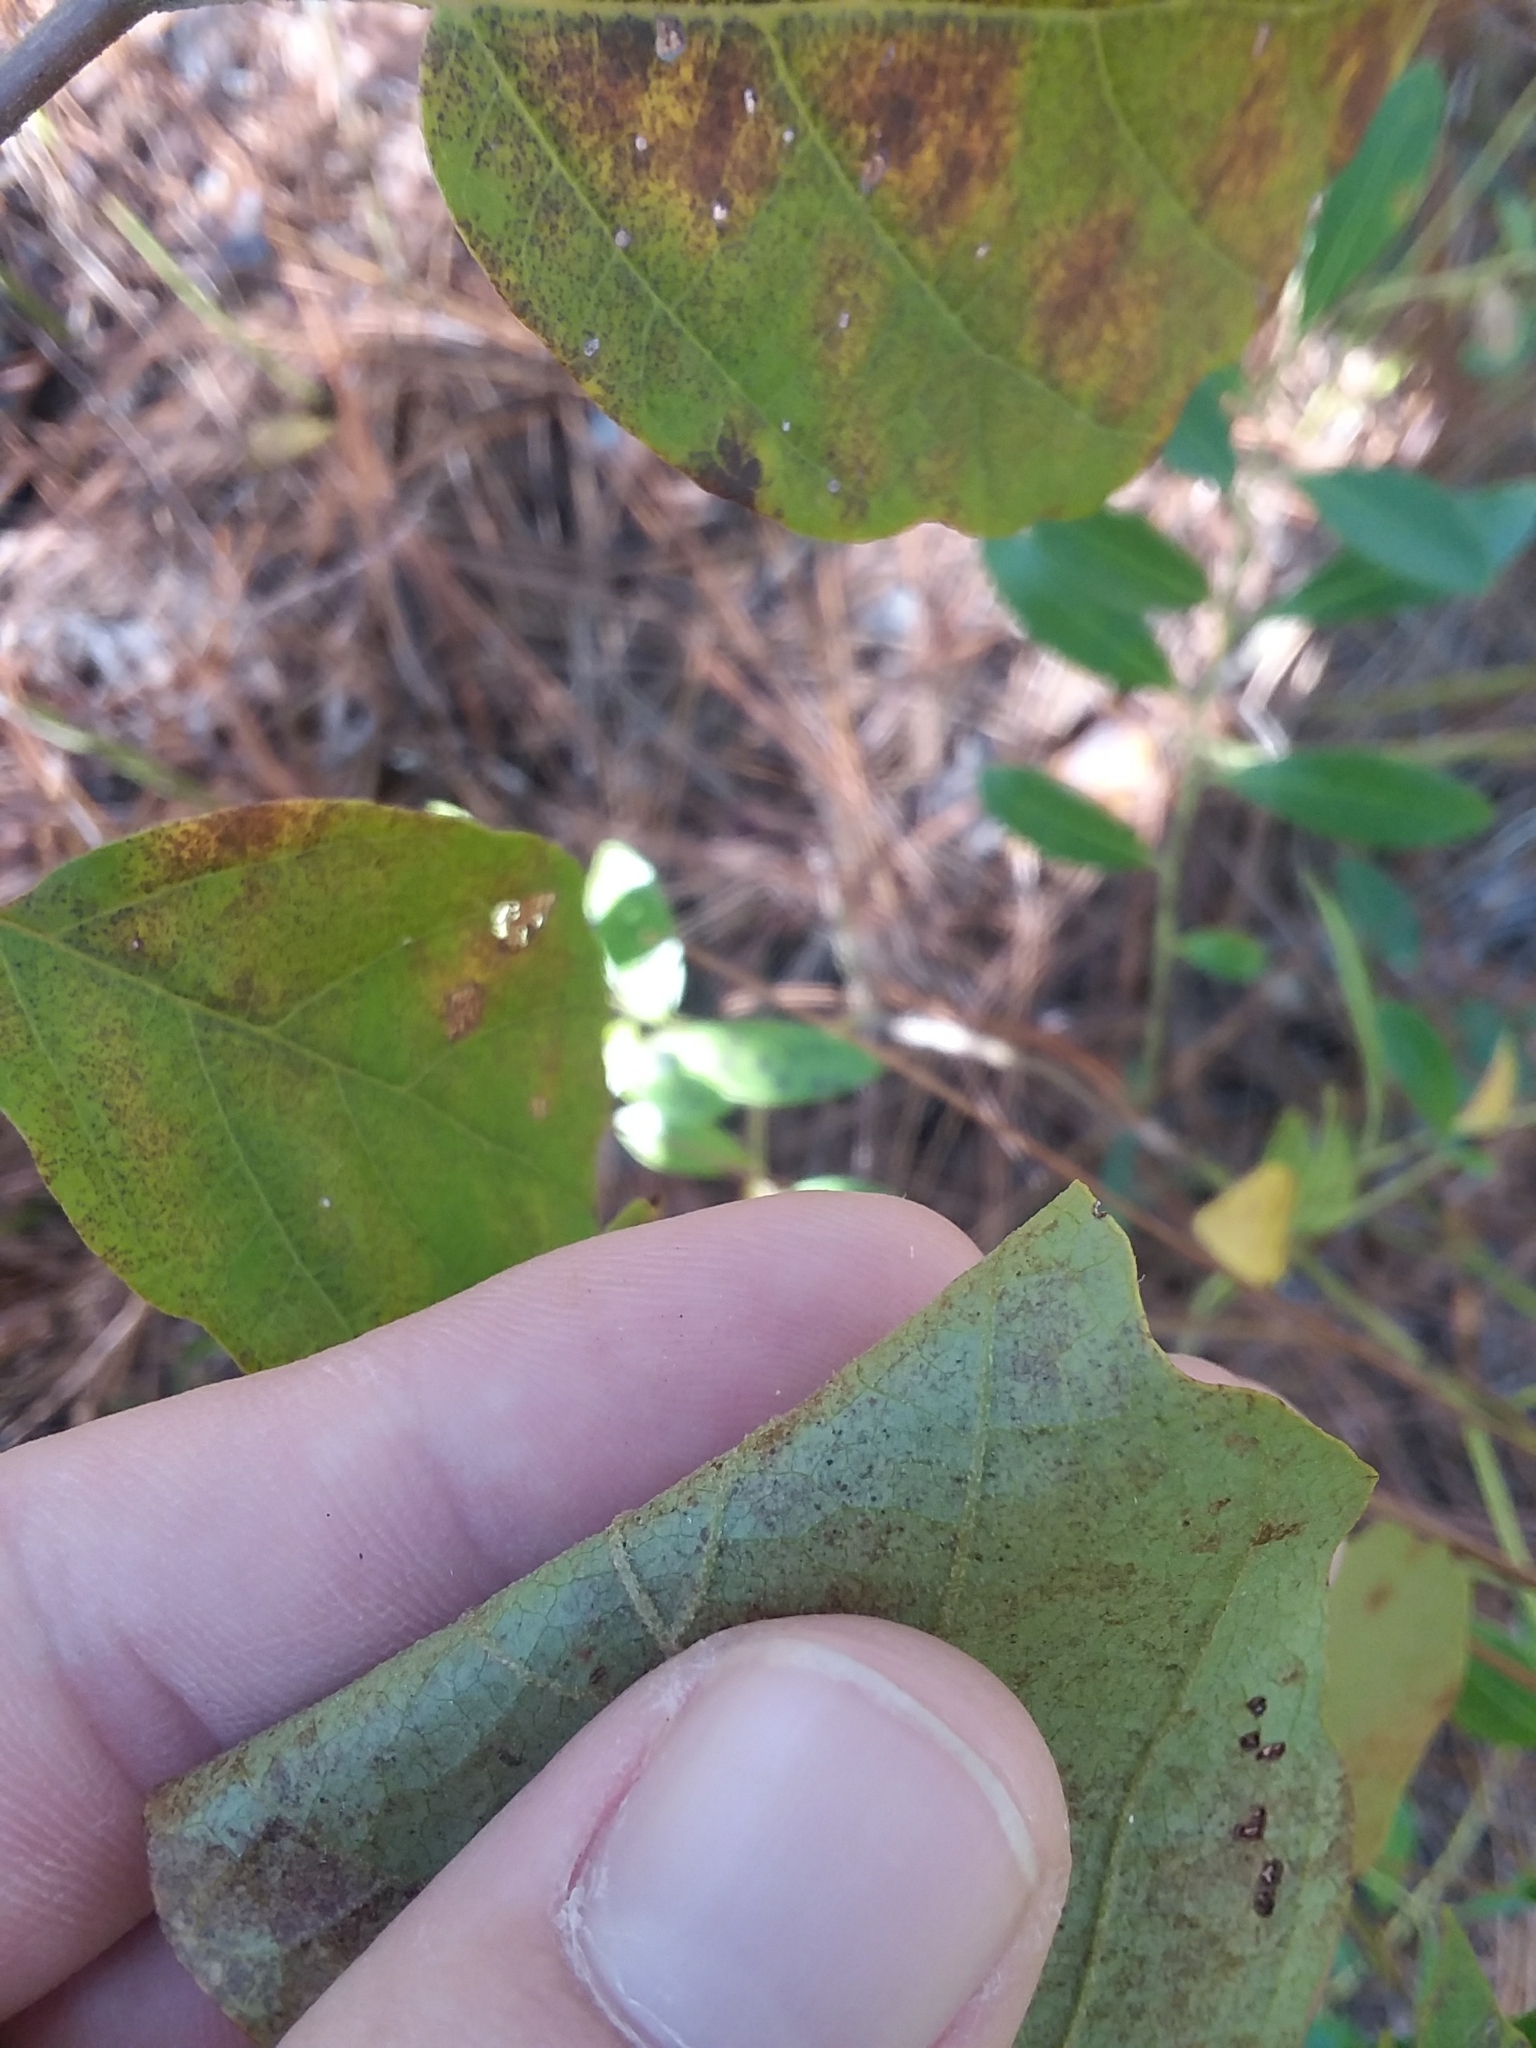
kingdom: Plantae
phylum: Tracheophyta
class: Magnoliopsida
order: Saxifragales
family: Hamamelidaceae
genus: Hamamelis
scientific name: Hamamelis virginiana
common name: Witch-hazel
